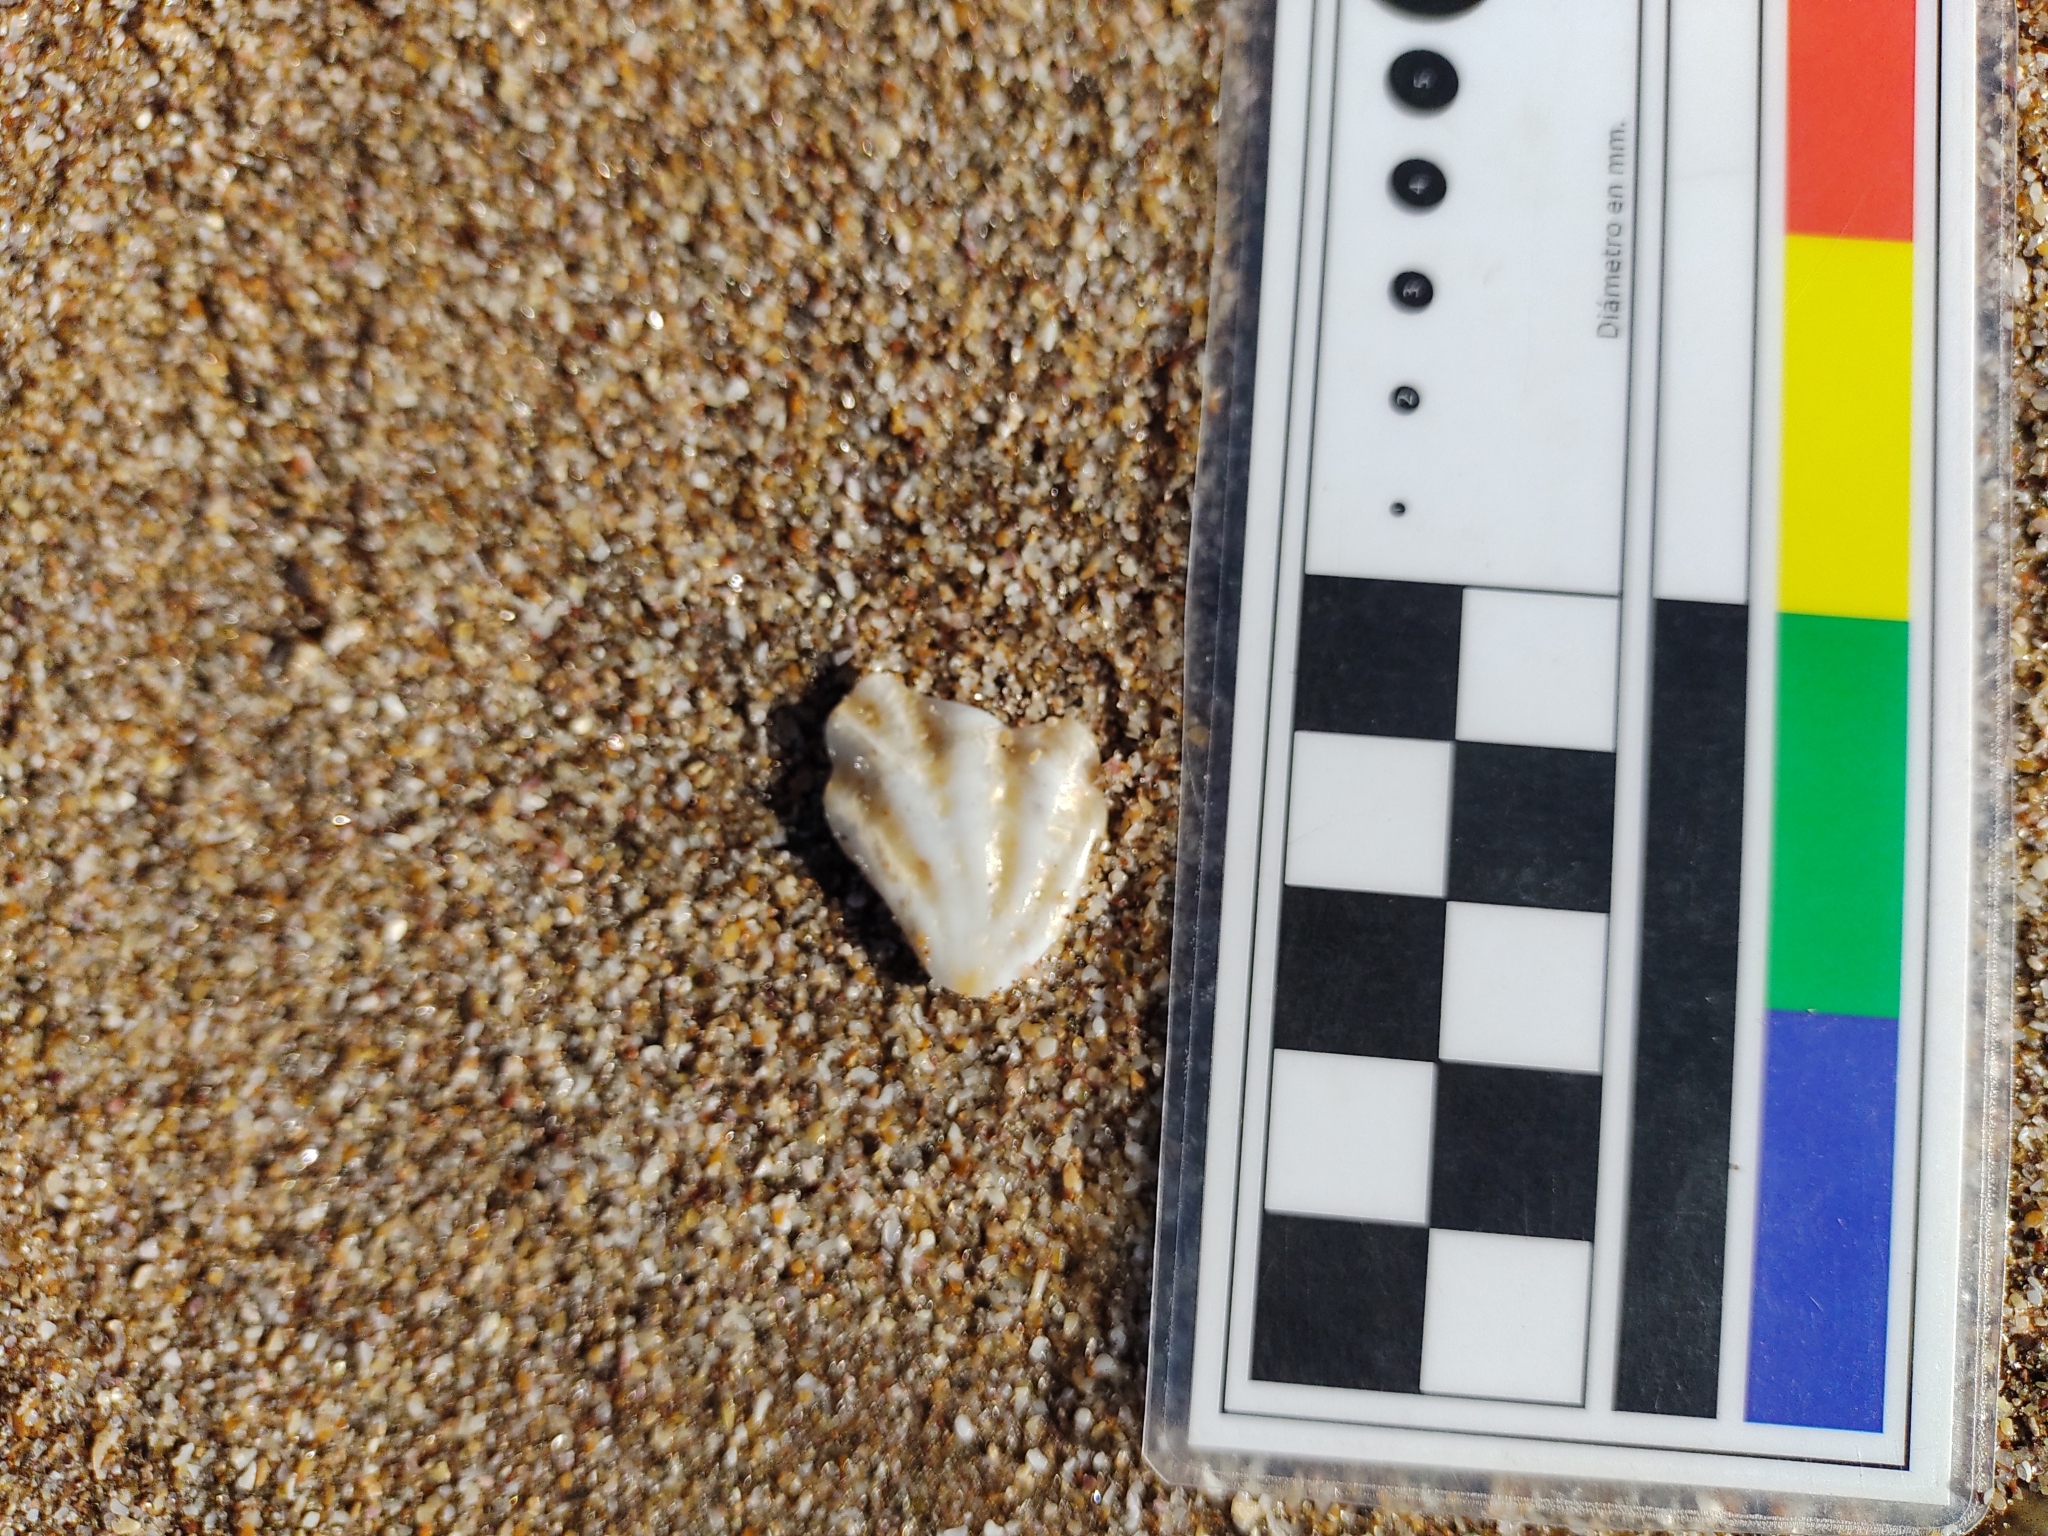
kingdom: Animalia
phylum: Mollusca
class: Bivalvia
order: Pectinida
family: Plicatulidae
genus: Plicatula
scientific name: Plicatula gibbosa
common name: Atlantic kitten's paw
